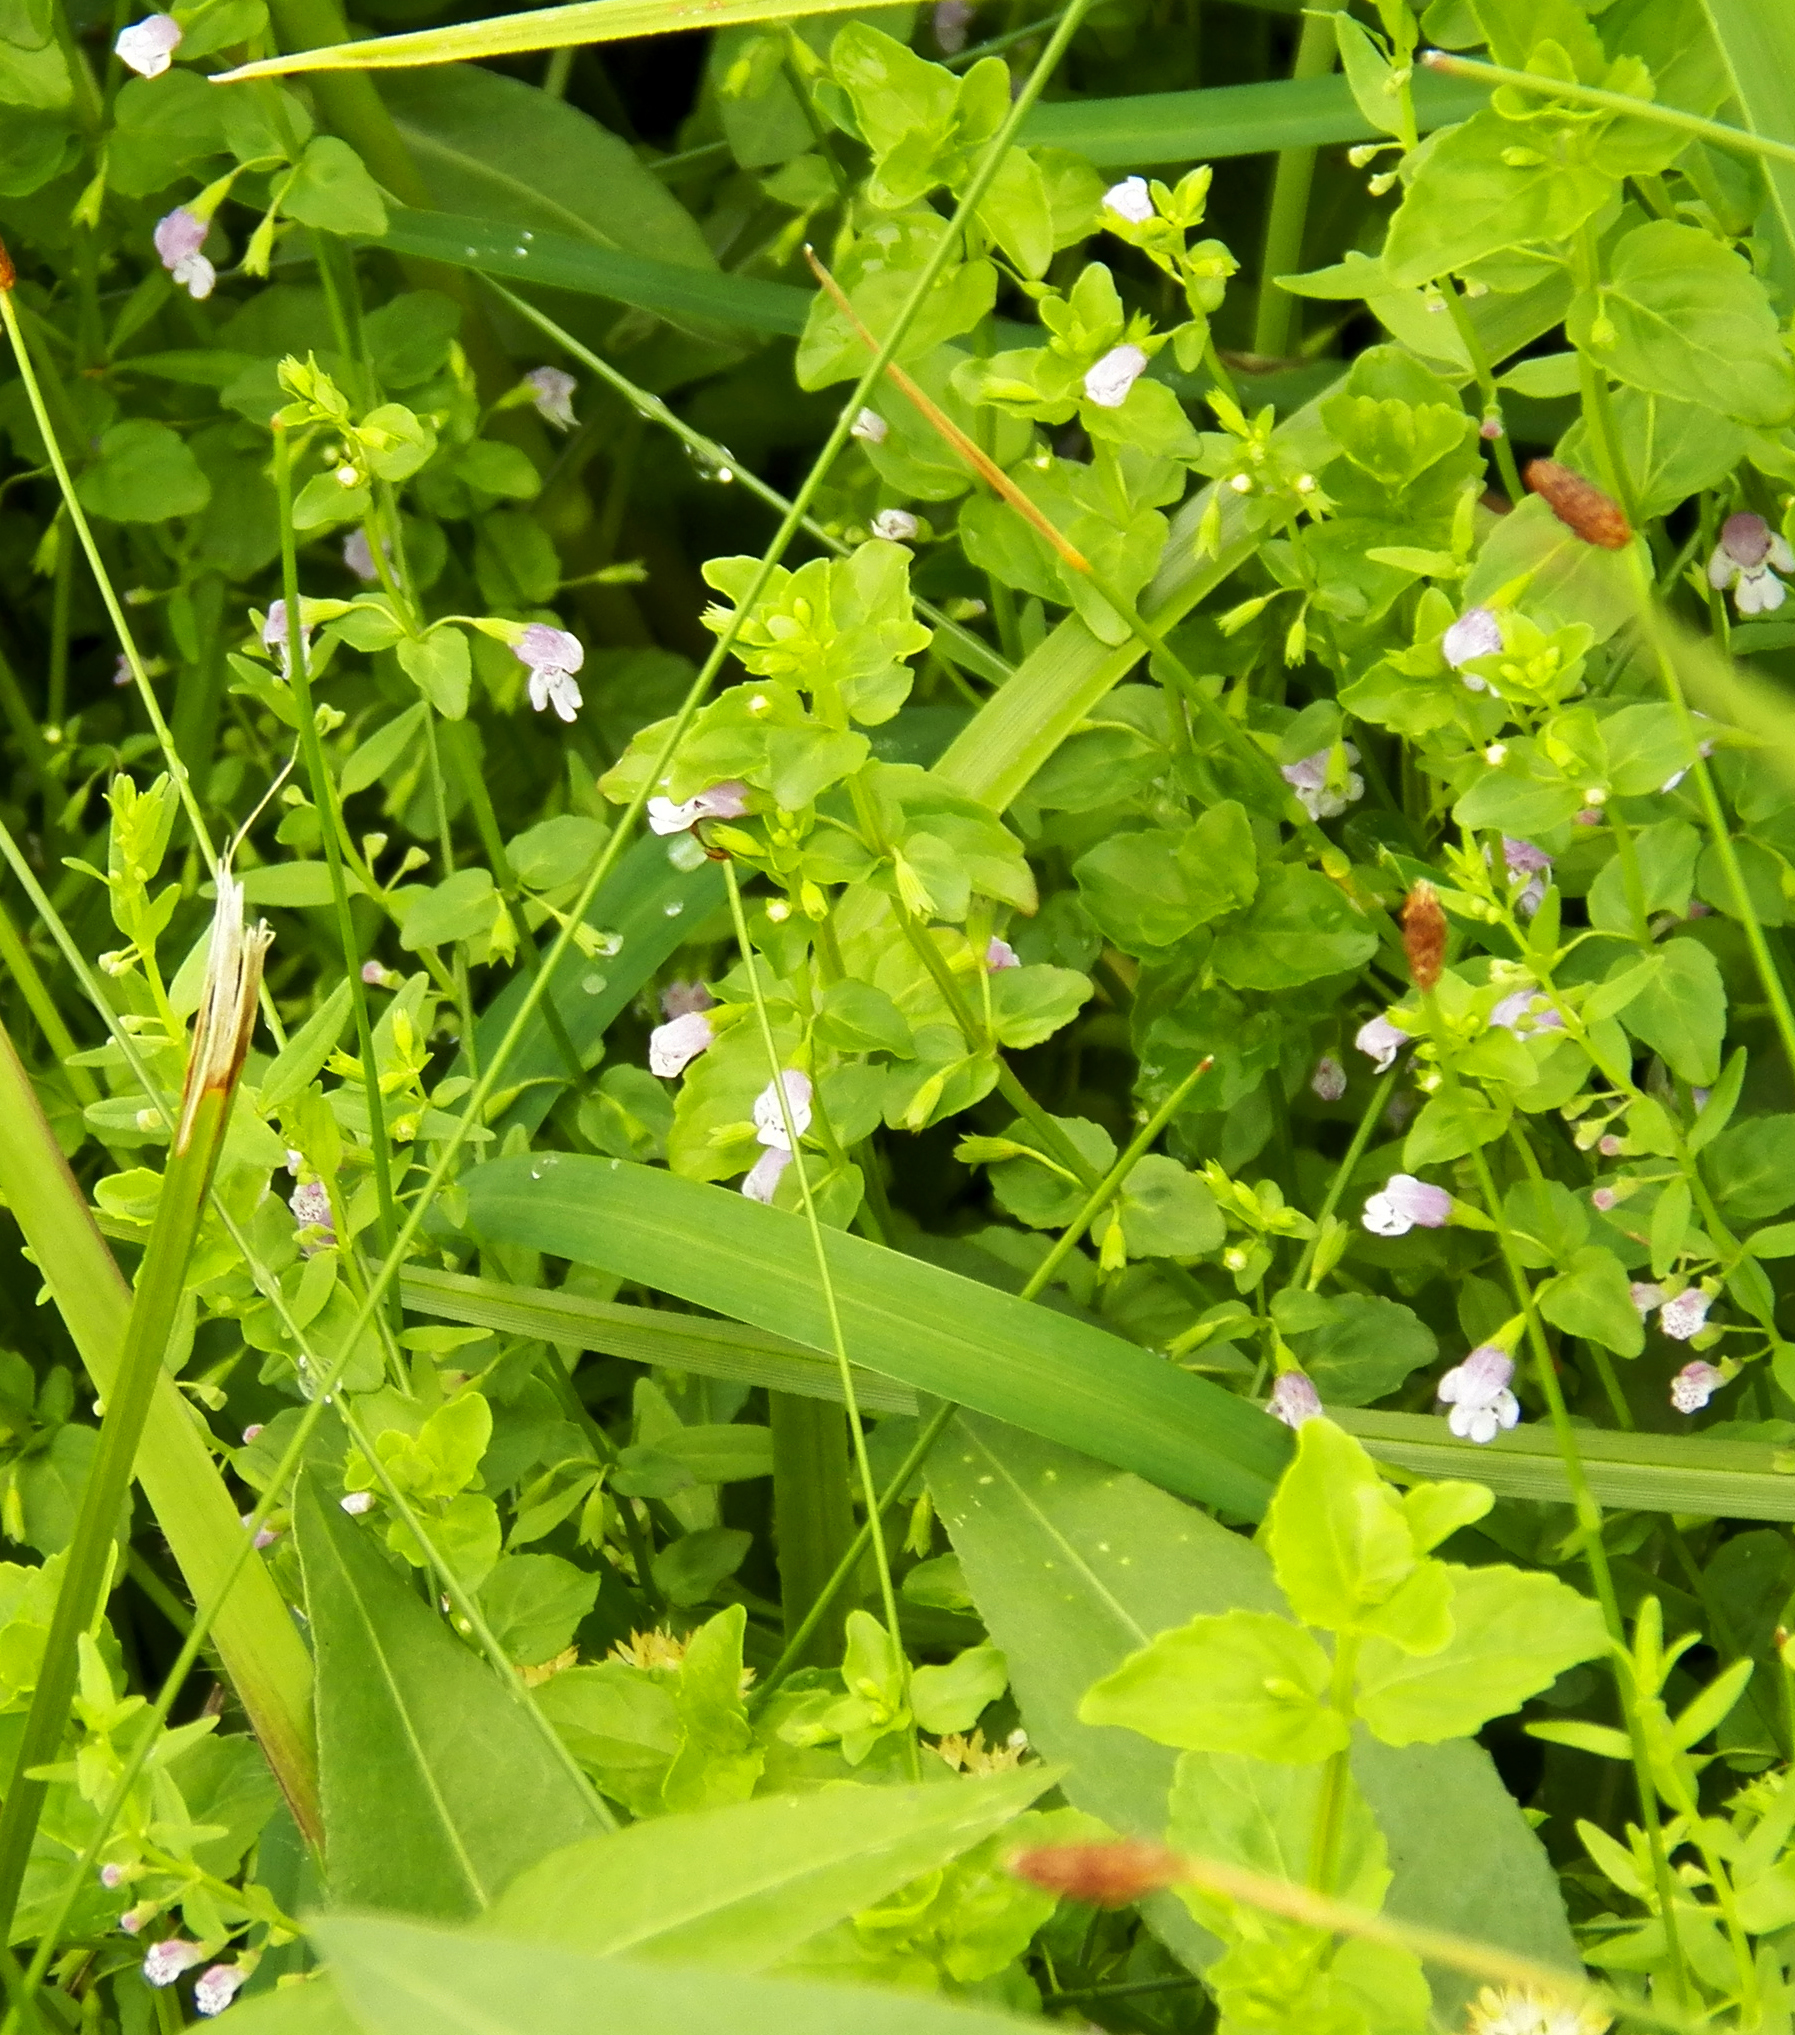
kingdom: Plantae
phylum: Tracheophyta
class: Magnoliopsida
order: Lamiales
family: Lamiaceae
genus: Clinopodium
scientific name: Clinopodium brownei
